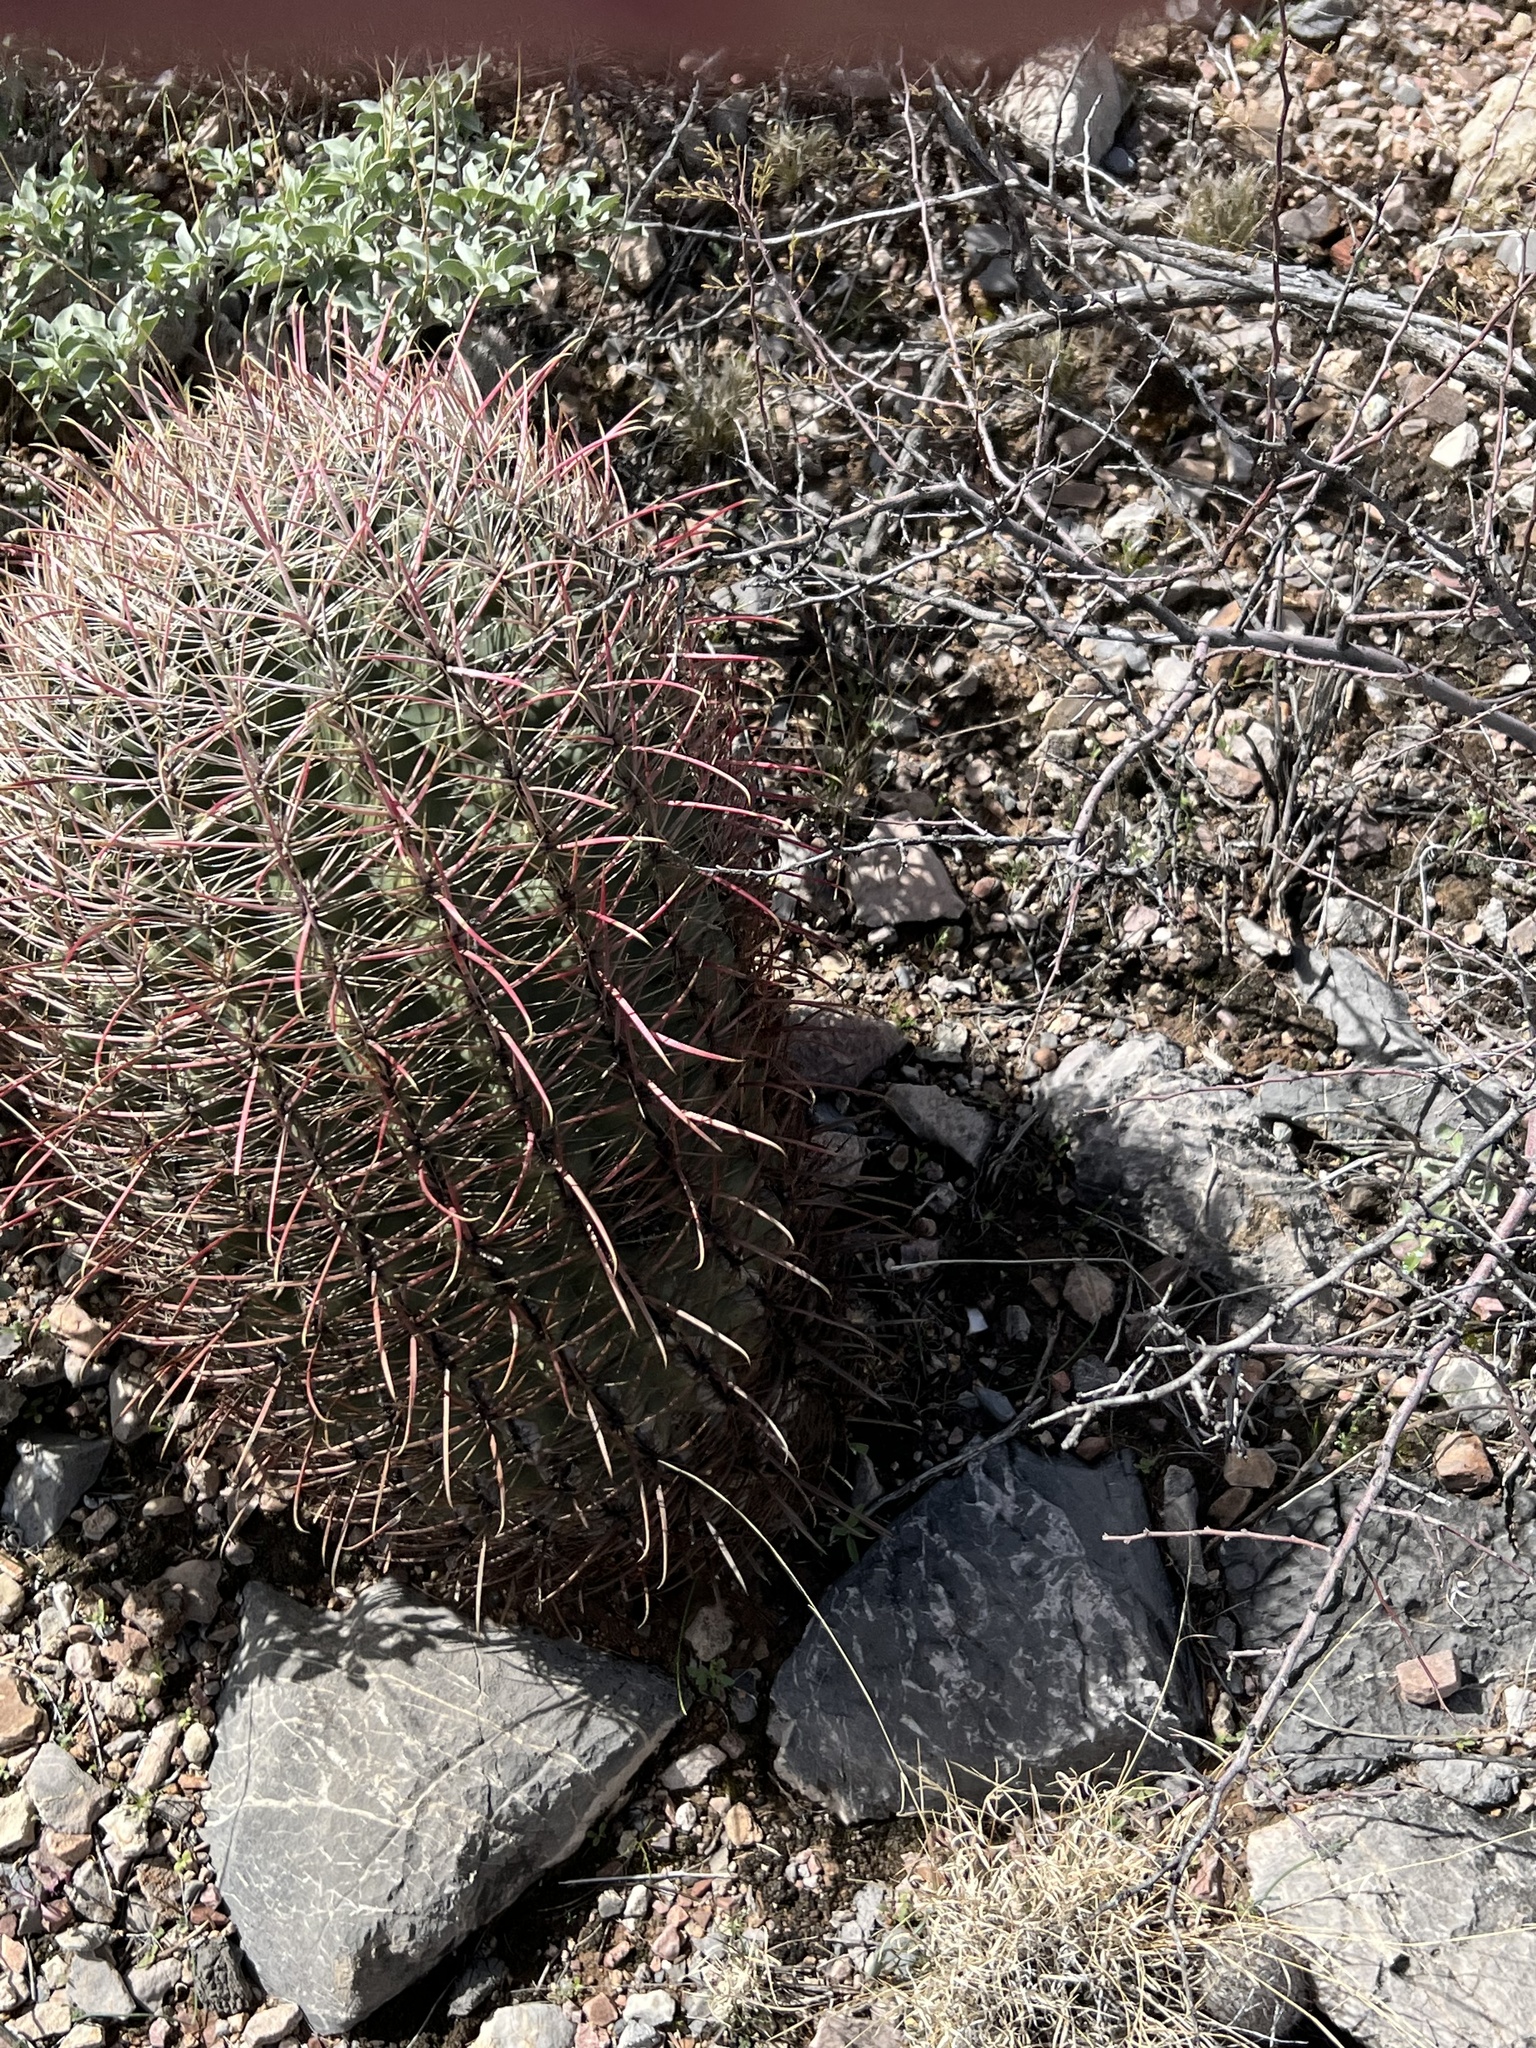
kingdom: Plantae
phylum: Tracheophyta
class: Magnoliopsida
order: Caryophyllales
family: Cactaceae
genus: Ferocactus
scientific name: Ferocactus cylindraceus
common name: California barrel cactus
